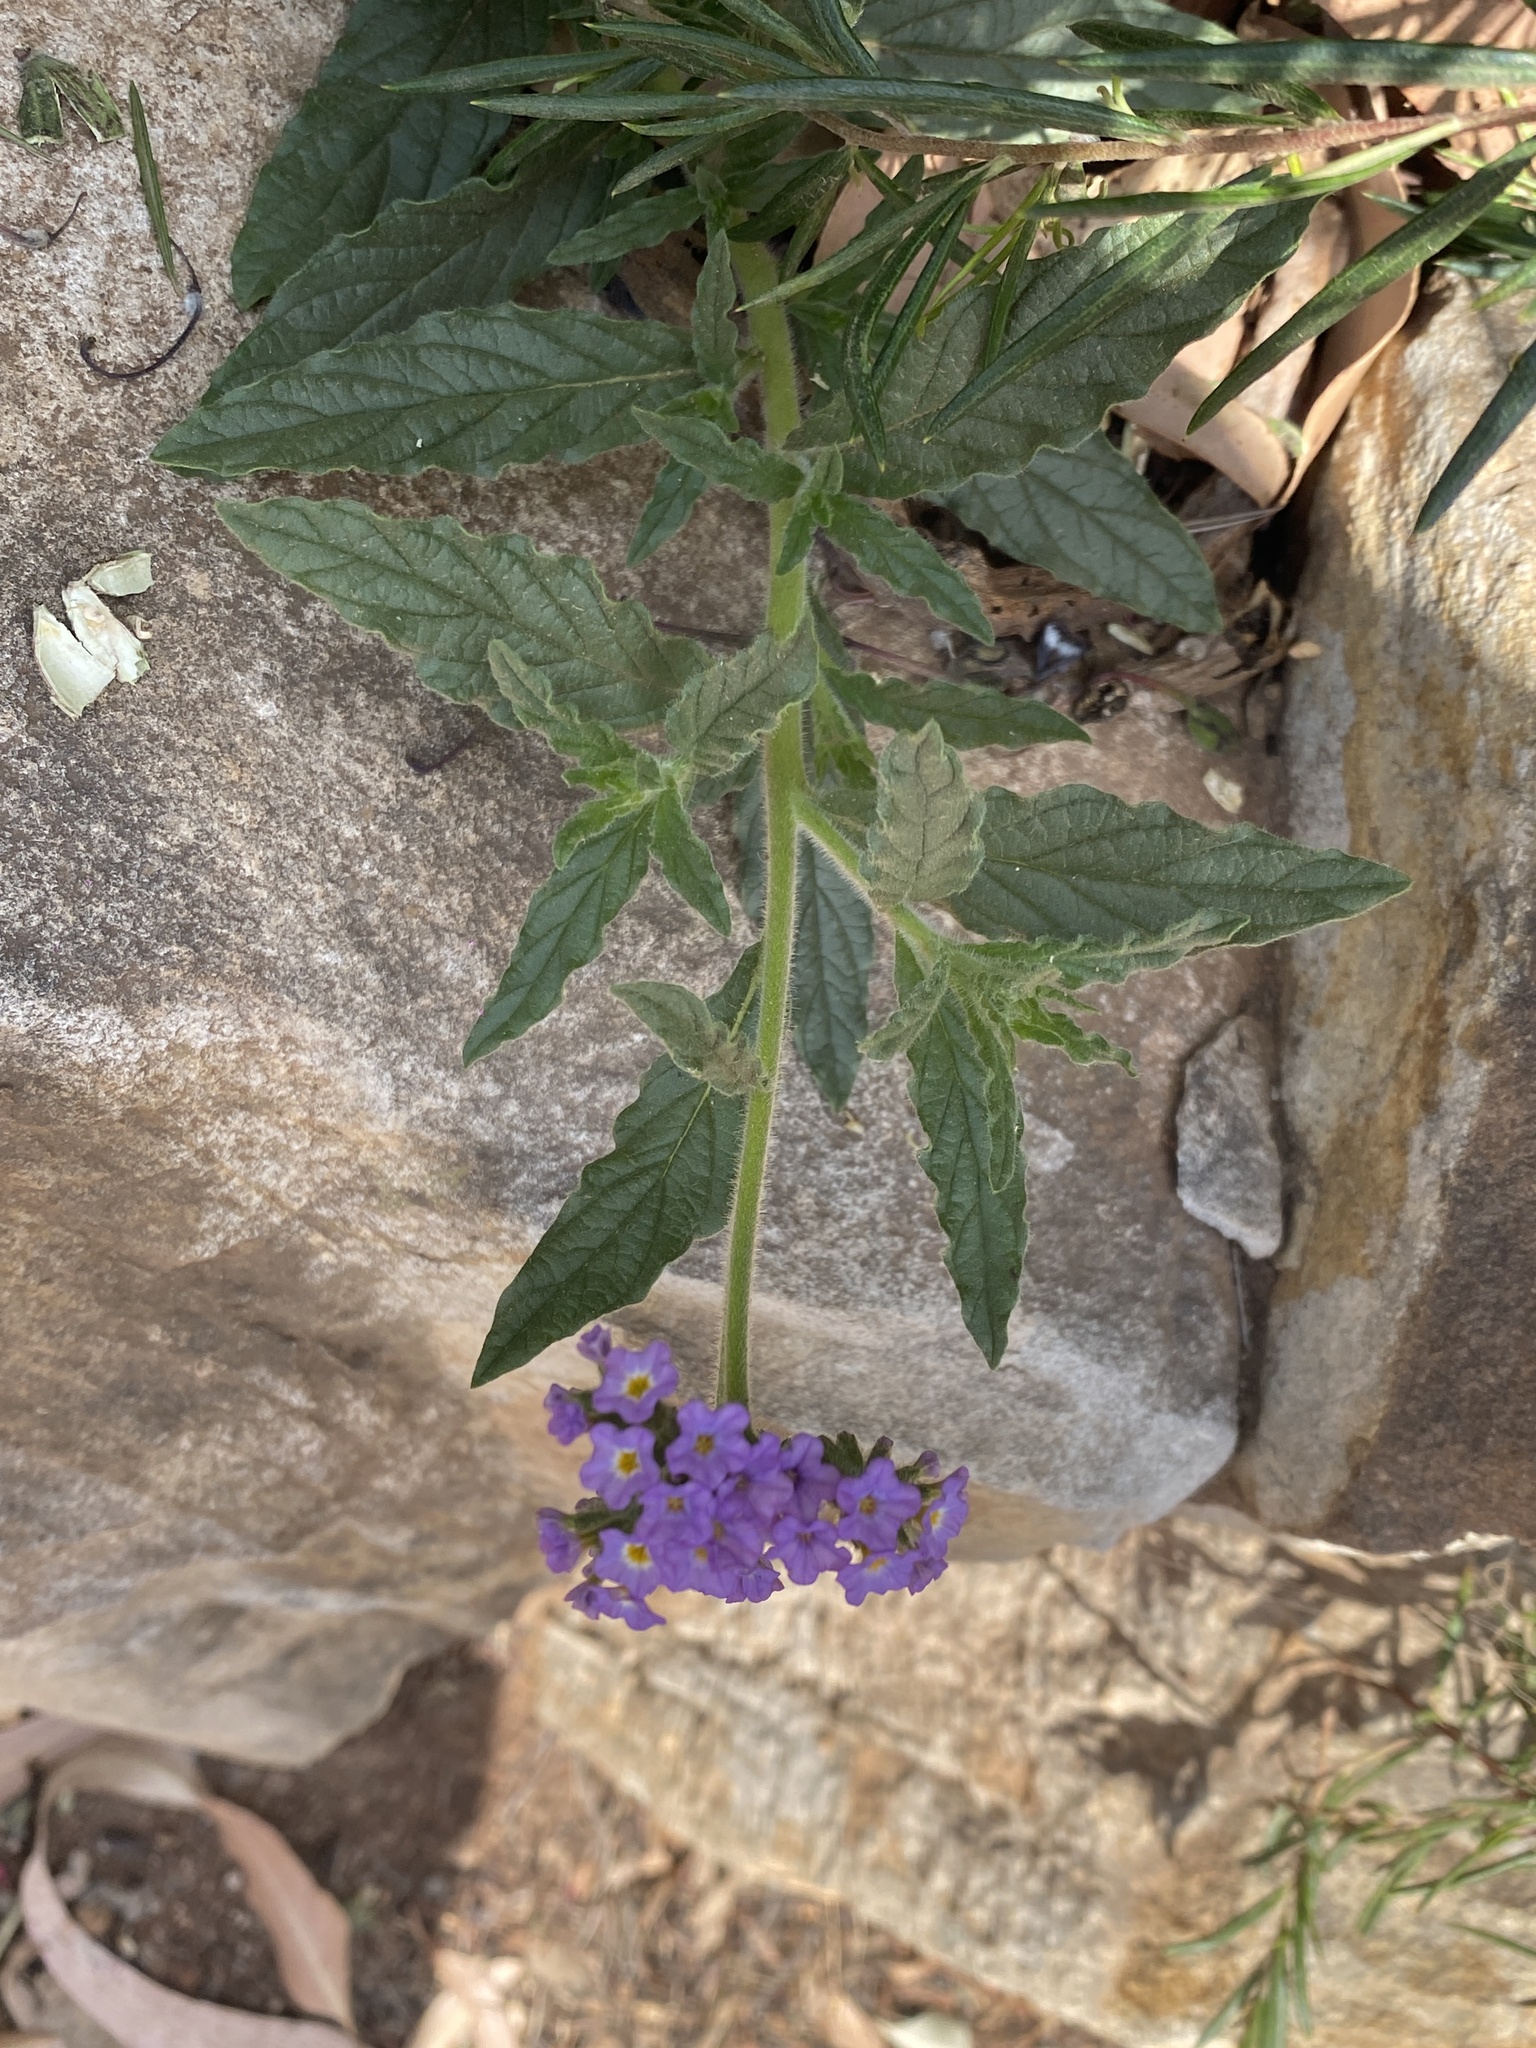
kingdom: Plantae
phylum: Tracheophyta
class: Magnoliopsida
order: Boraginales
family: Heliotropiaceae
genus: Heliotropium
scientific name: Heliotropium amplexicaule
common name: Clasping heliotrope
